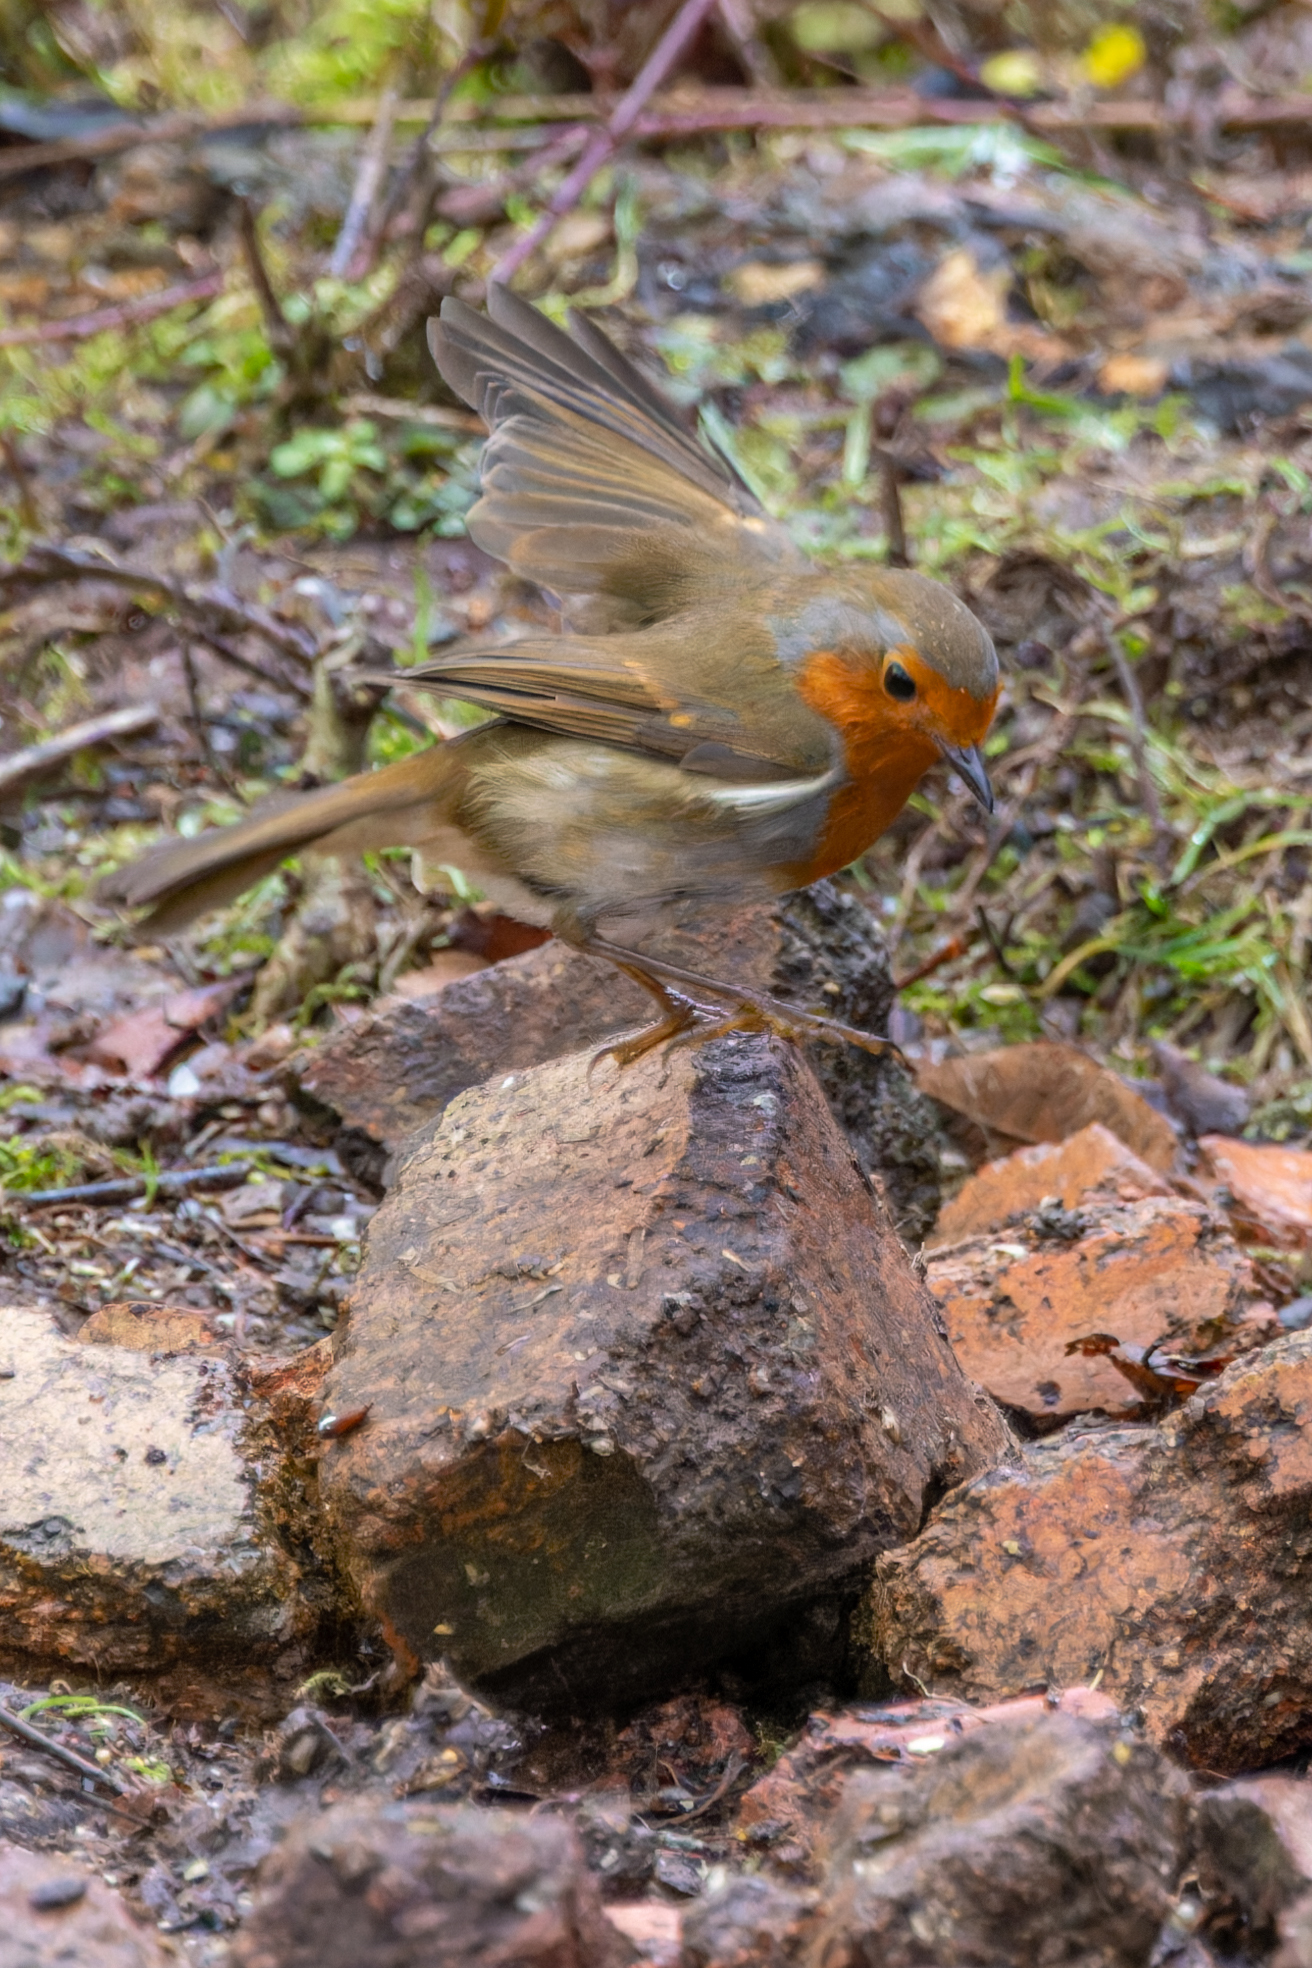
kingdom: Animalia
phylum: Chordata
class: Aves
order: Passeriformes
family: Muscicapidae
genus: Erithacus
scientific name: Erithacus rubecula
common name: European robin
